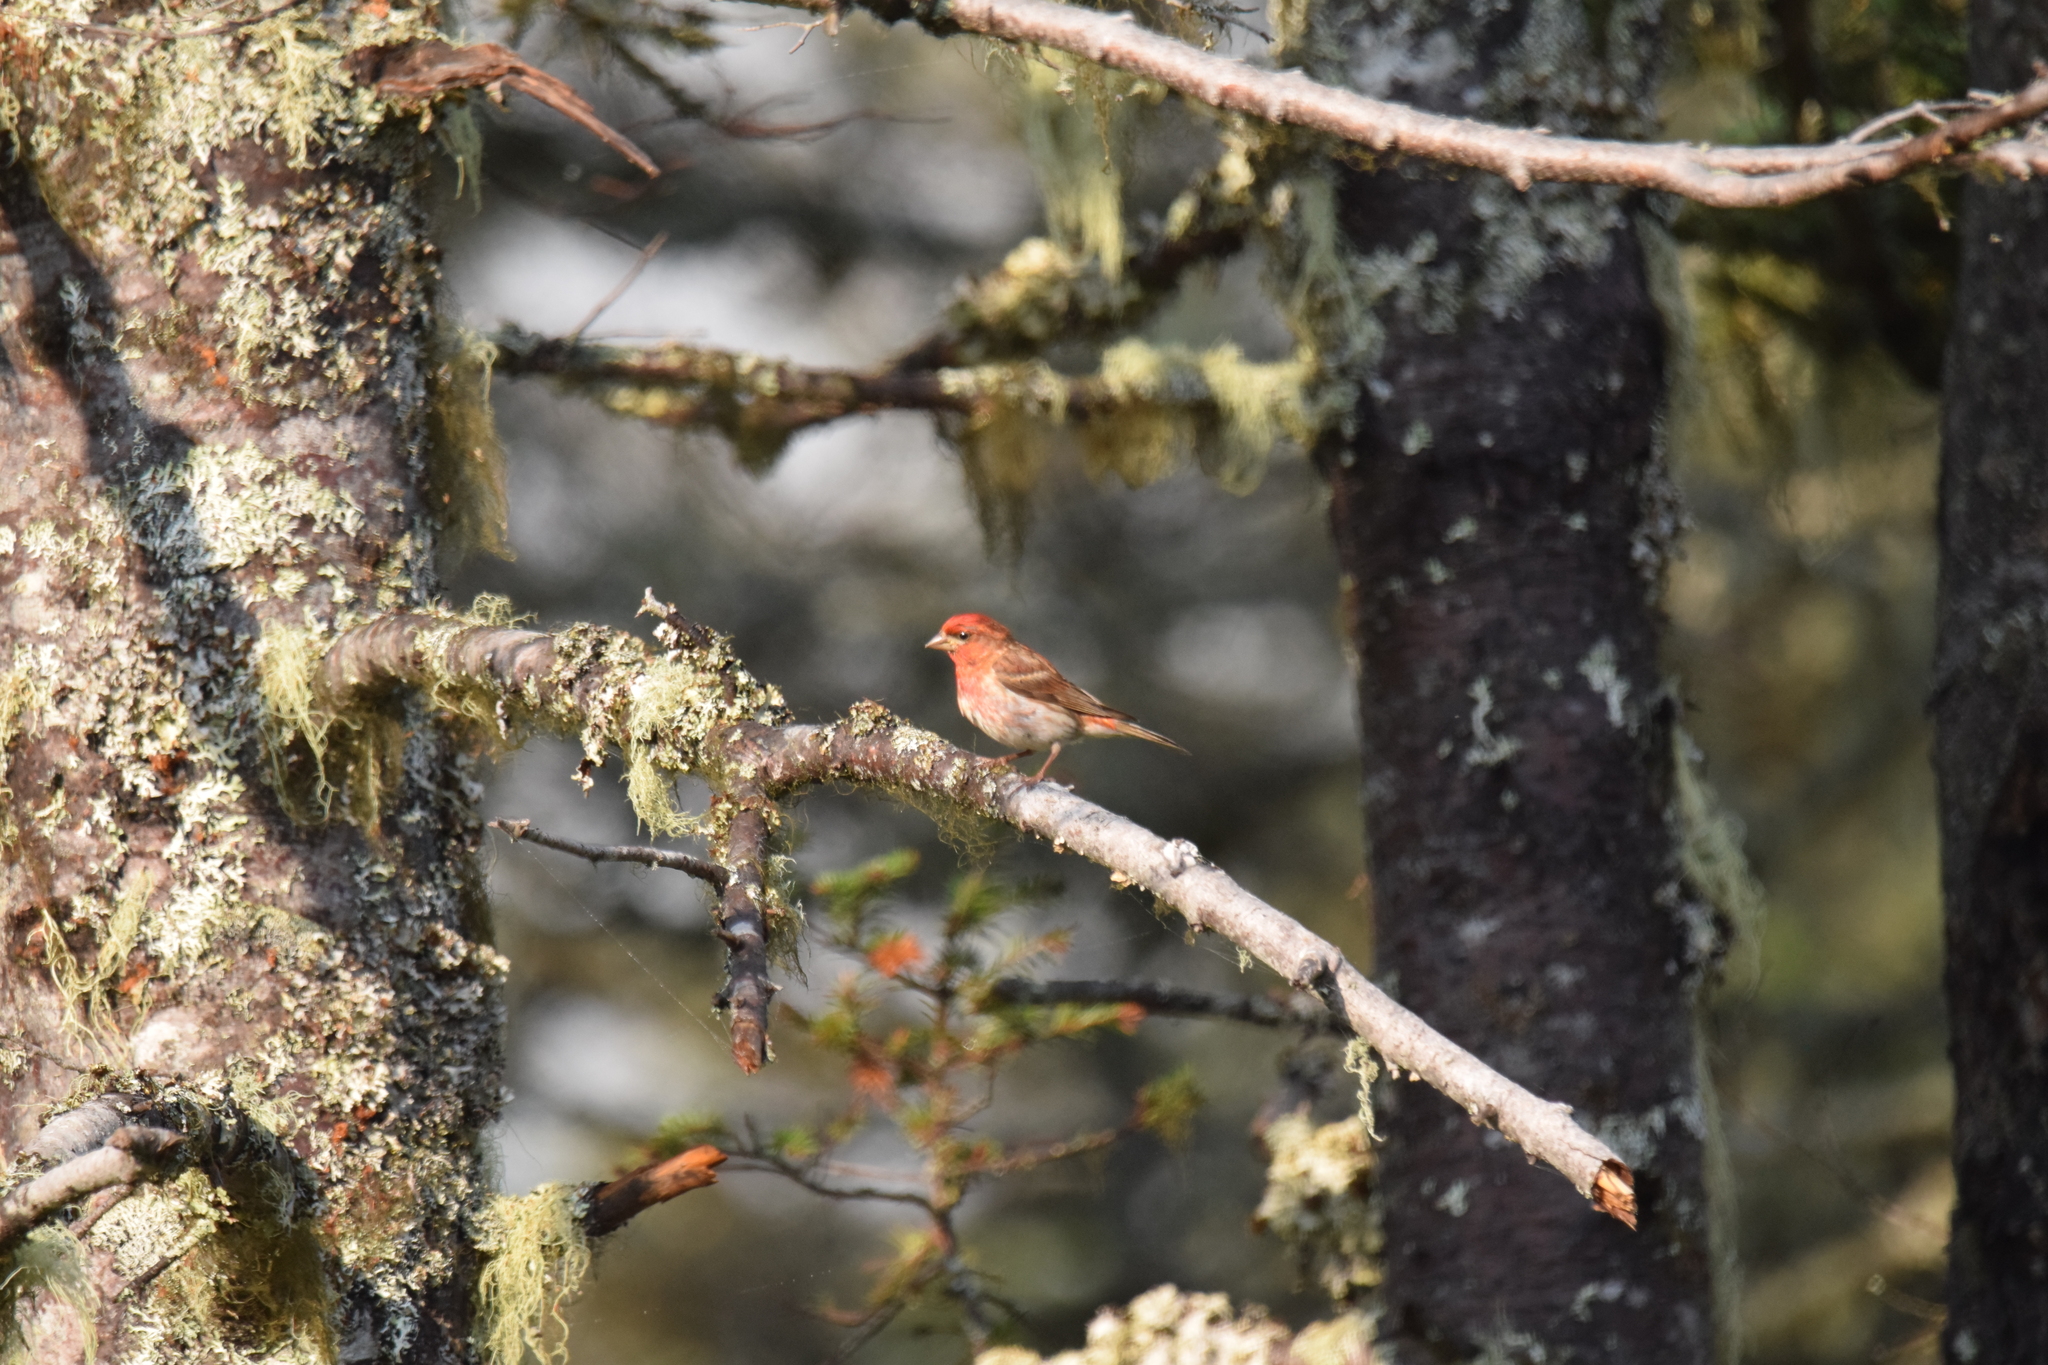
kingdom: Animalia
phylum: Chordata
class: Aves
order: Passeriformes
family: Fringillidae
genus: Haemorhous
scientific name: Haemorhous purpureus
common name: Purple finch
